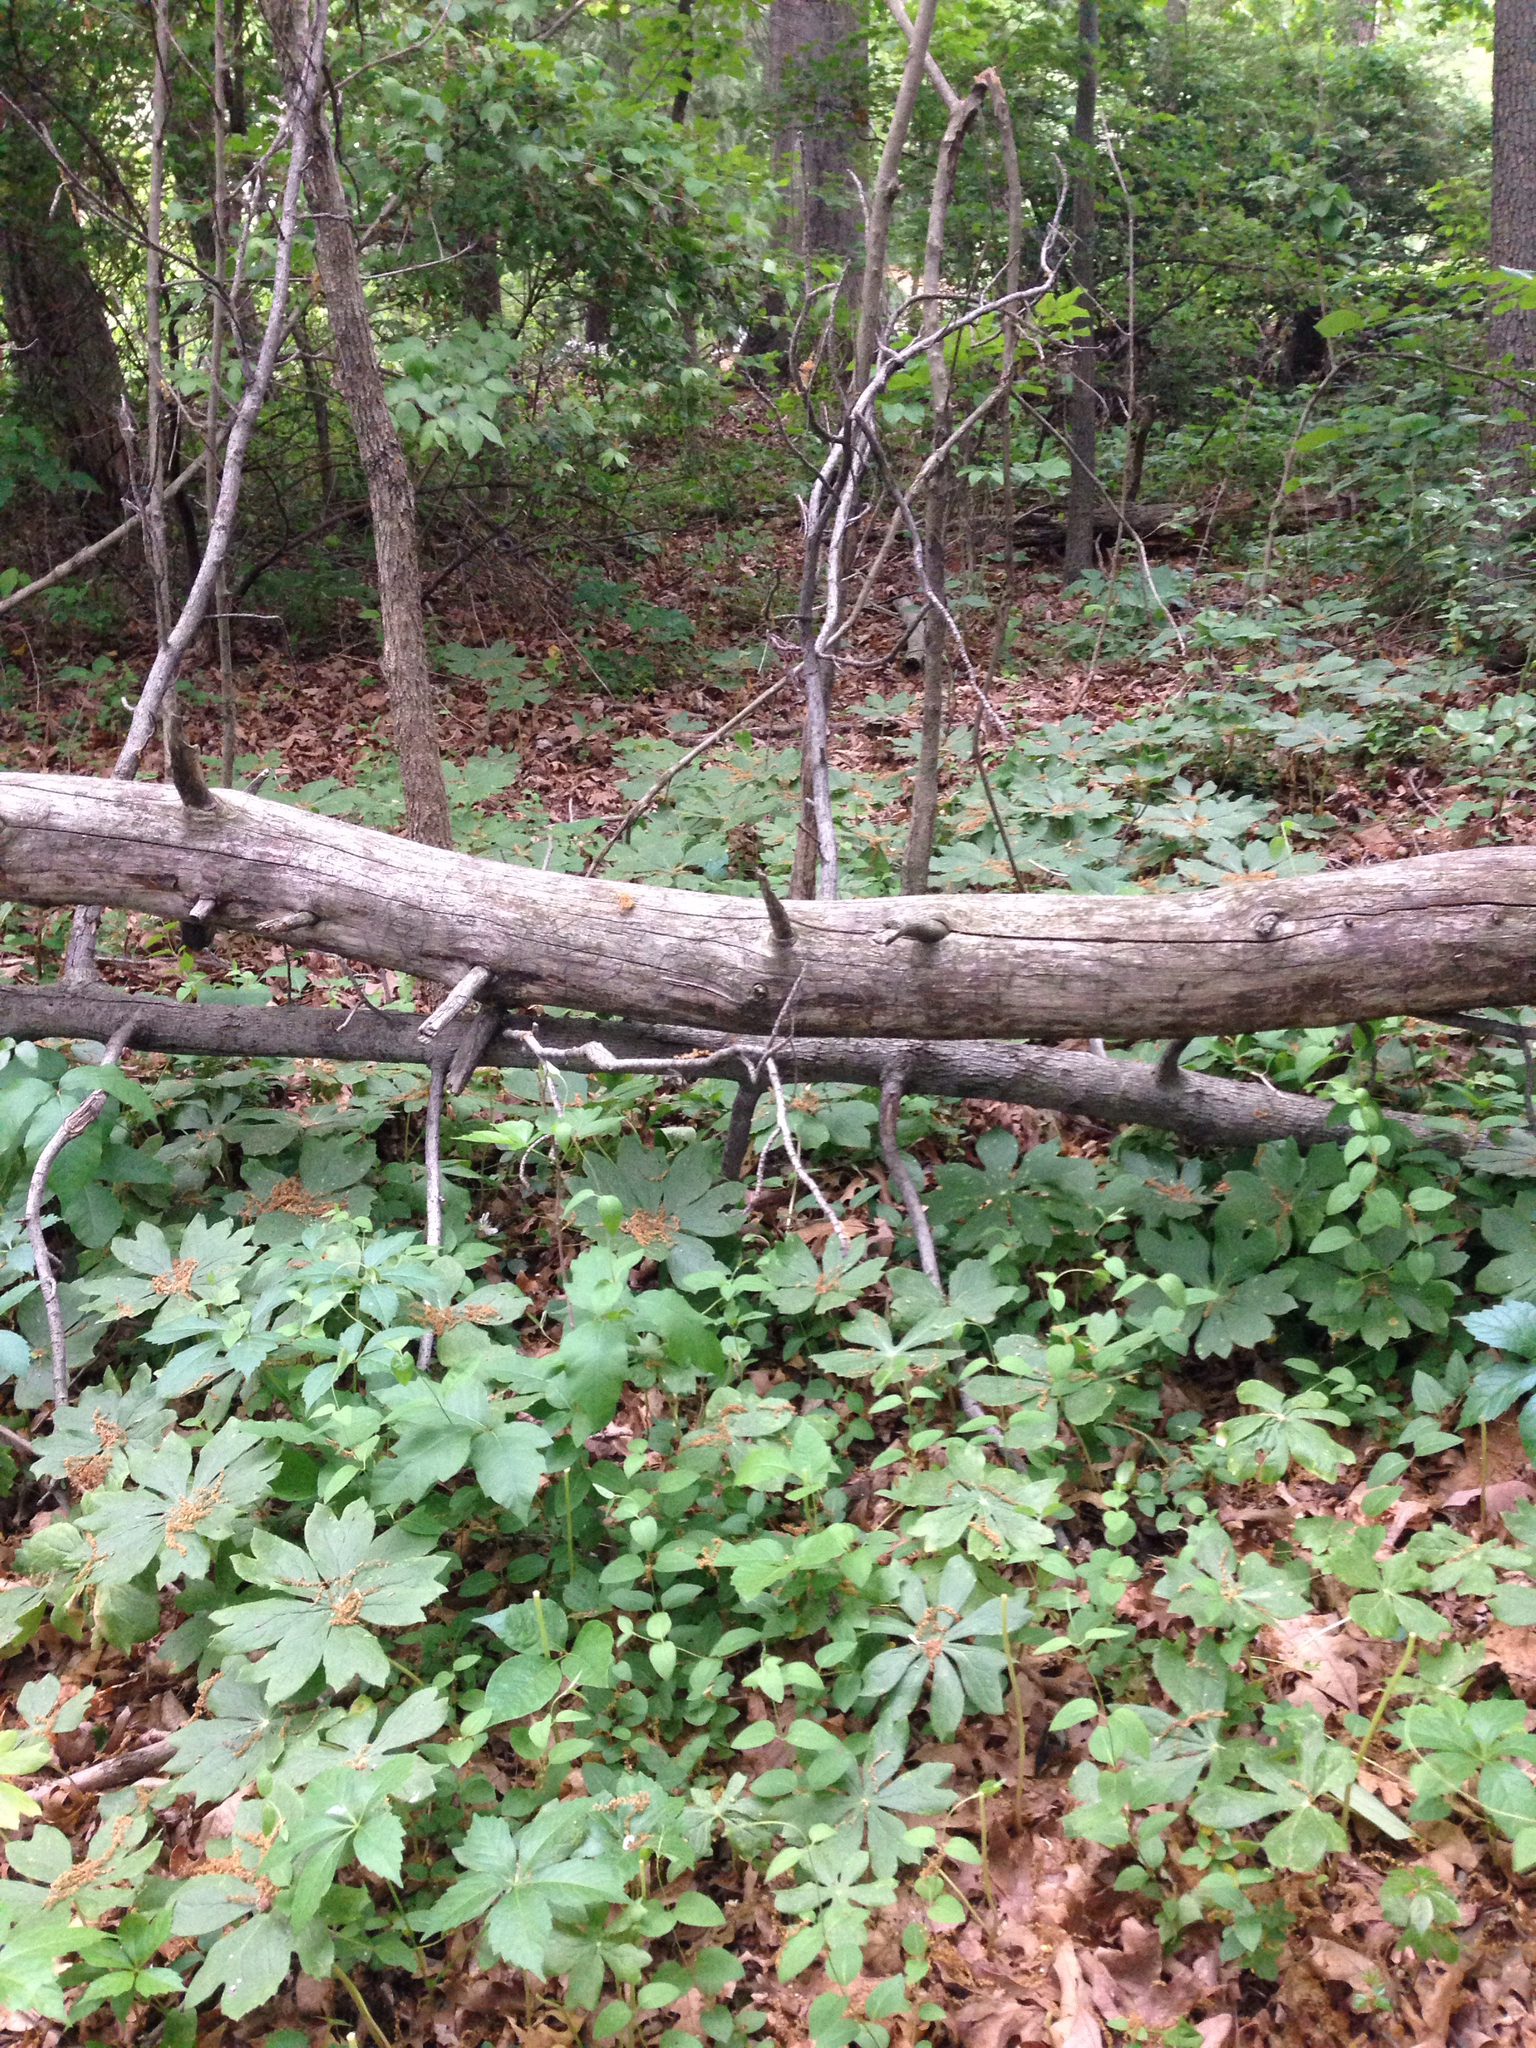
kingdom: Plantae
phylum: Tracheophyta
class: Magnoliopsida
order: Ranunculales
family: Berberidaceae
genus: Podophyllum
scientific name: Podophyllum peltatum
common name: Wild mandrake
